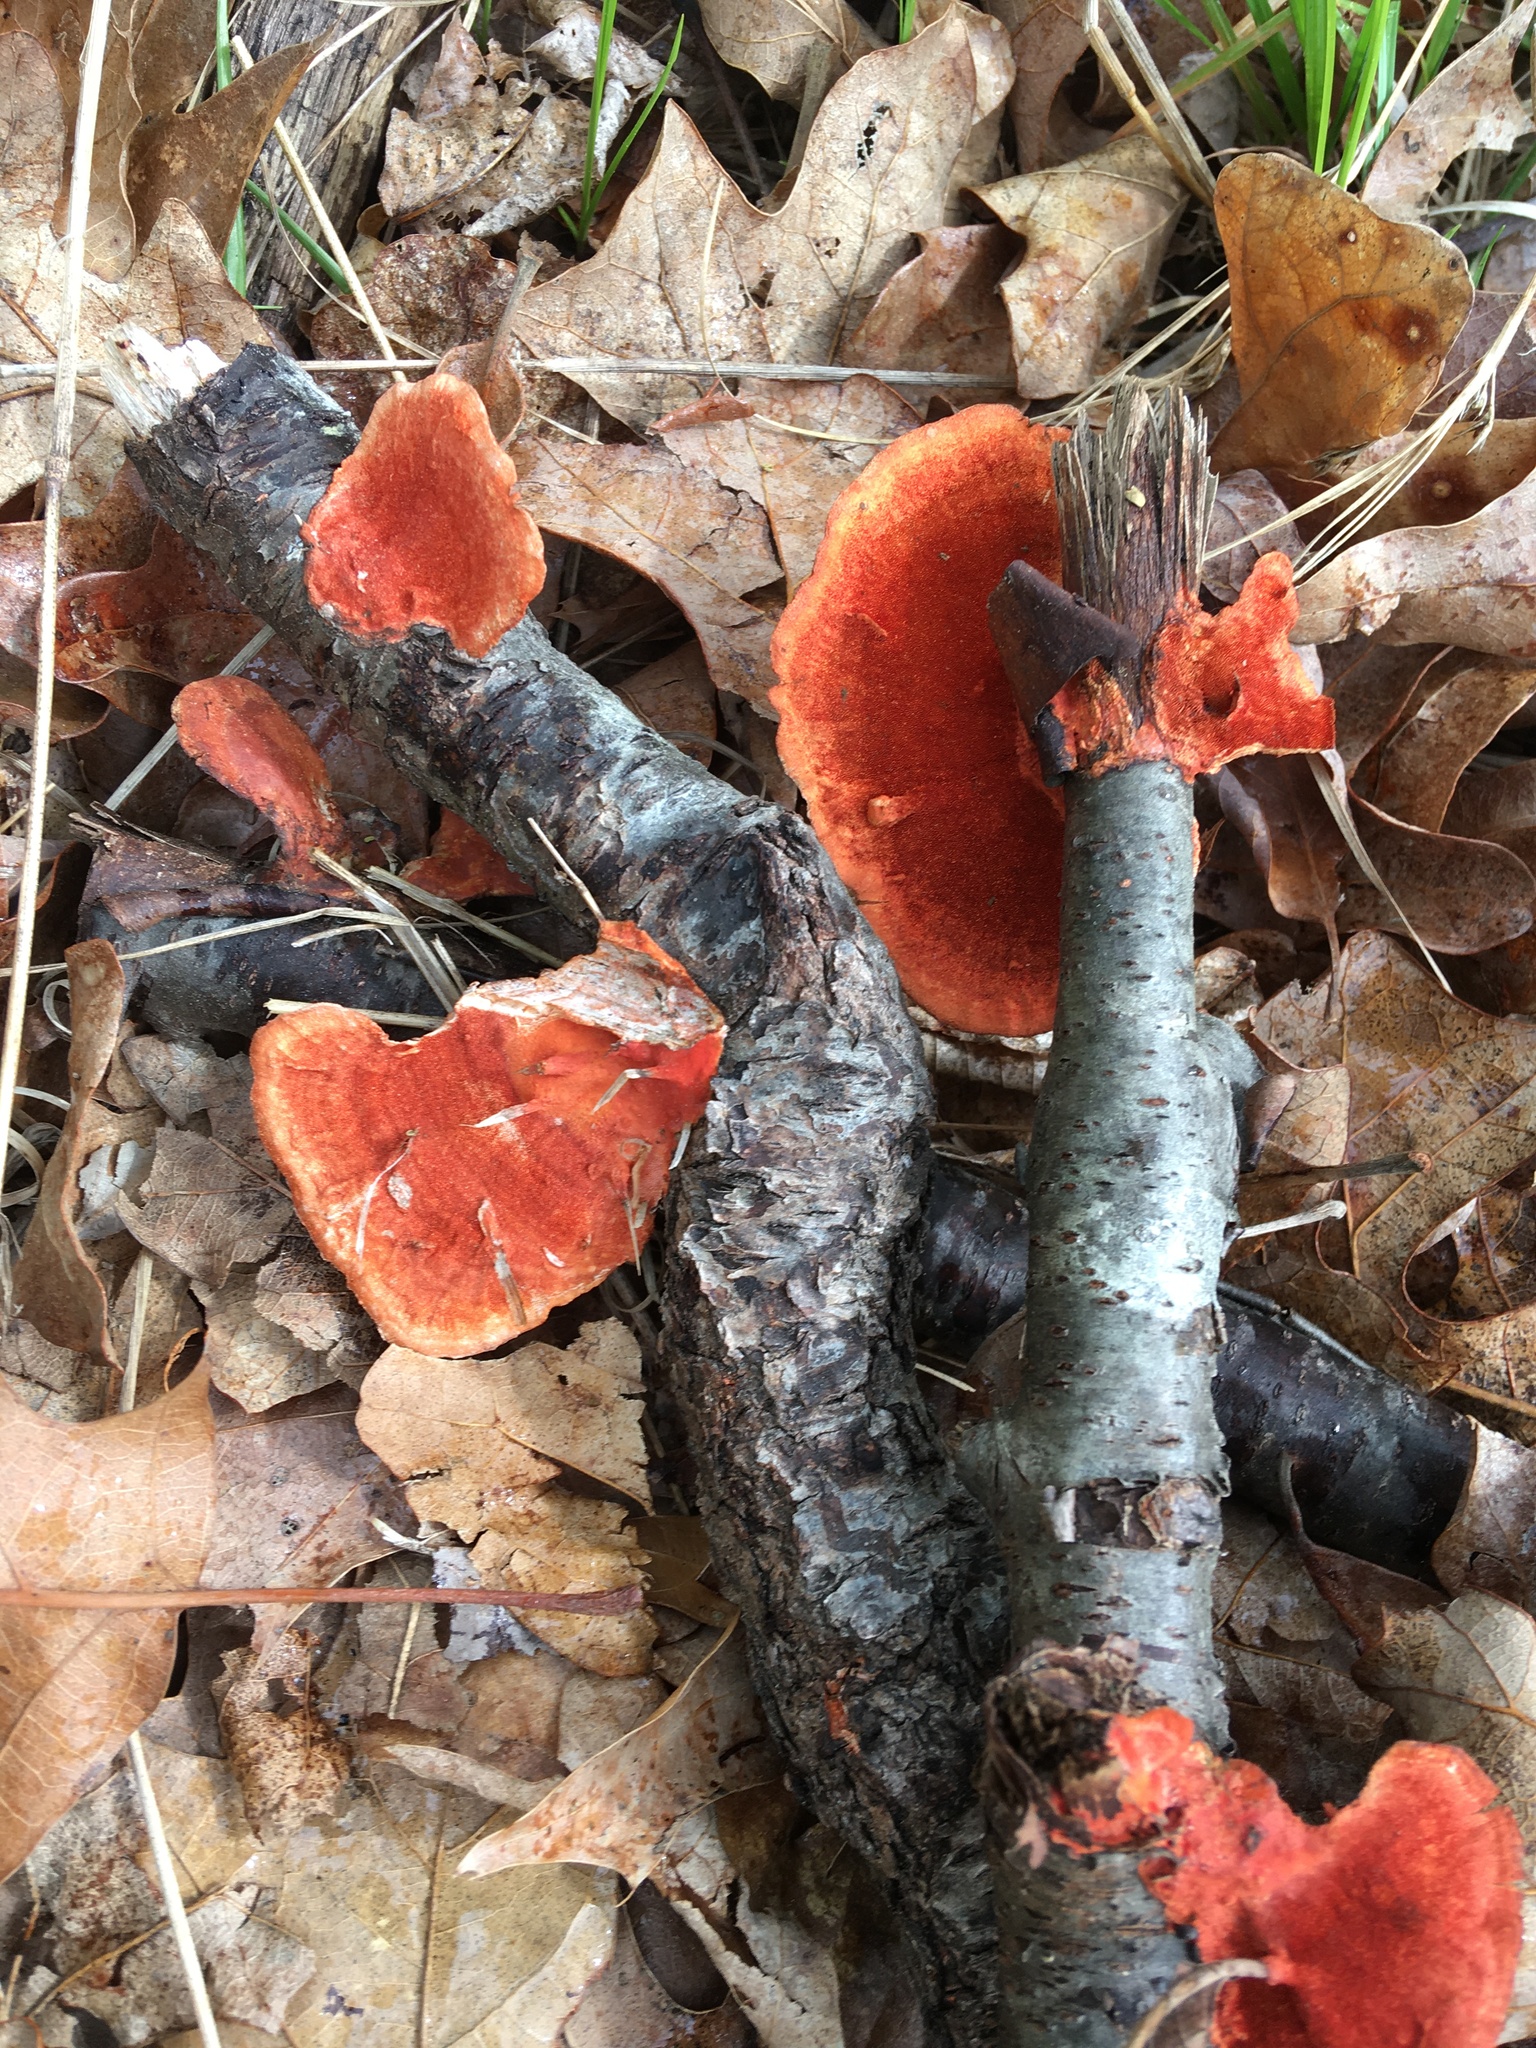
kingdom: Fungi
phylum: Basidiomycota
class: Agaricomycetes
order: Polyporales
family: Polyporaceae
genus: Trametes
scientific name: Trametes cinnabarina
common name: Northern cinnabar polypore
